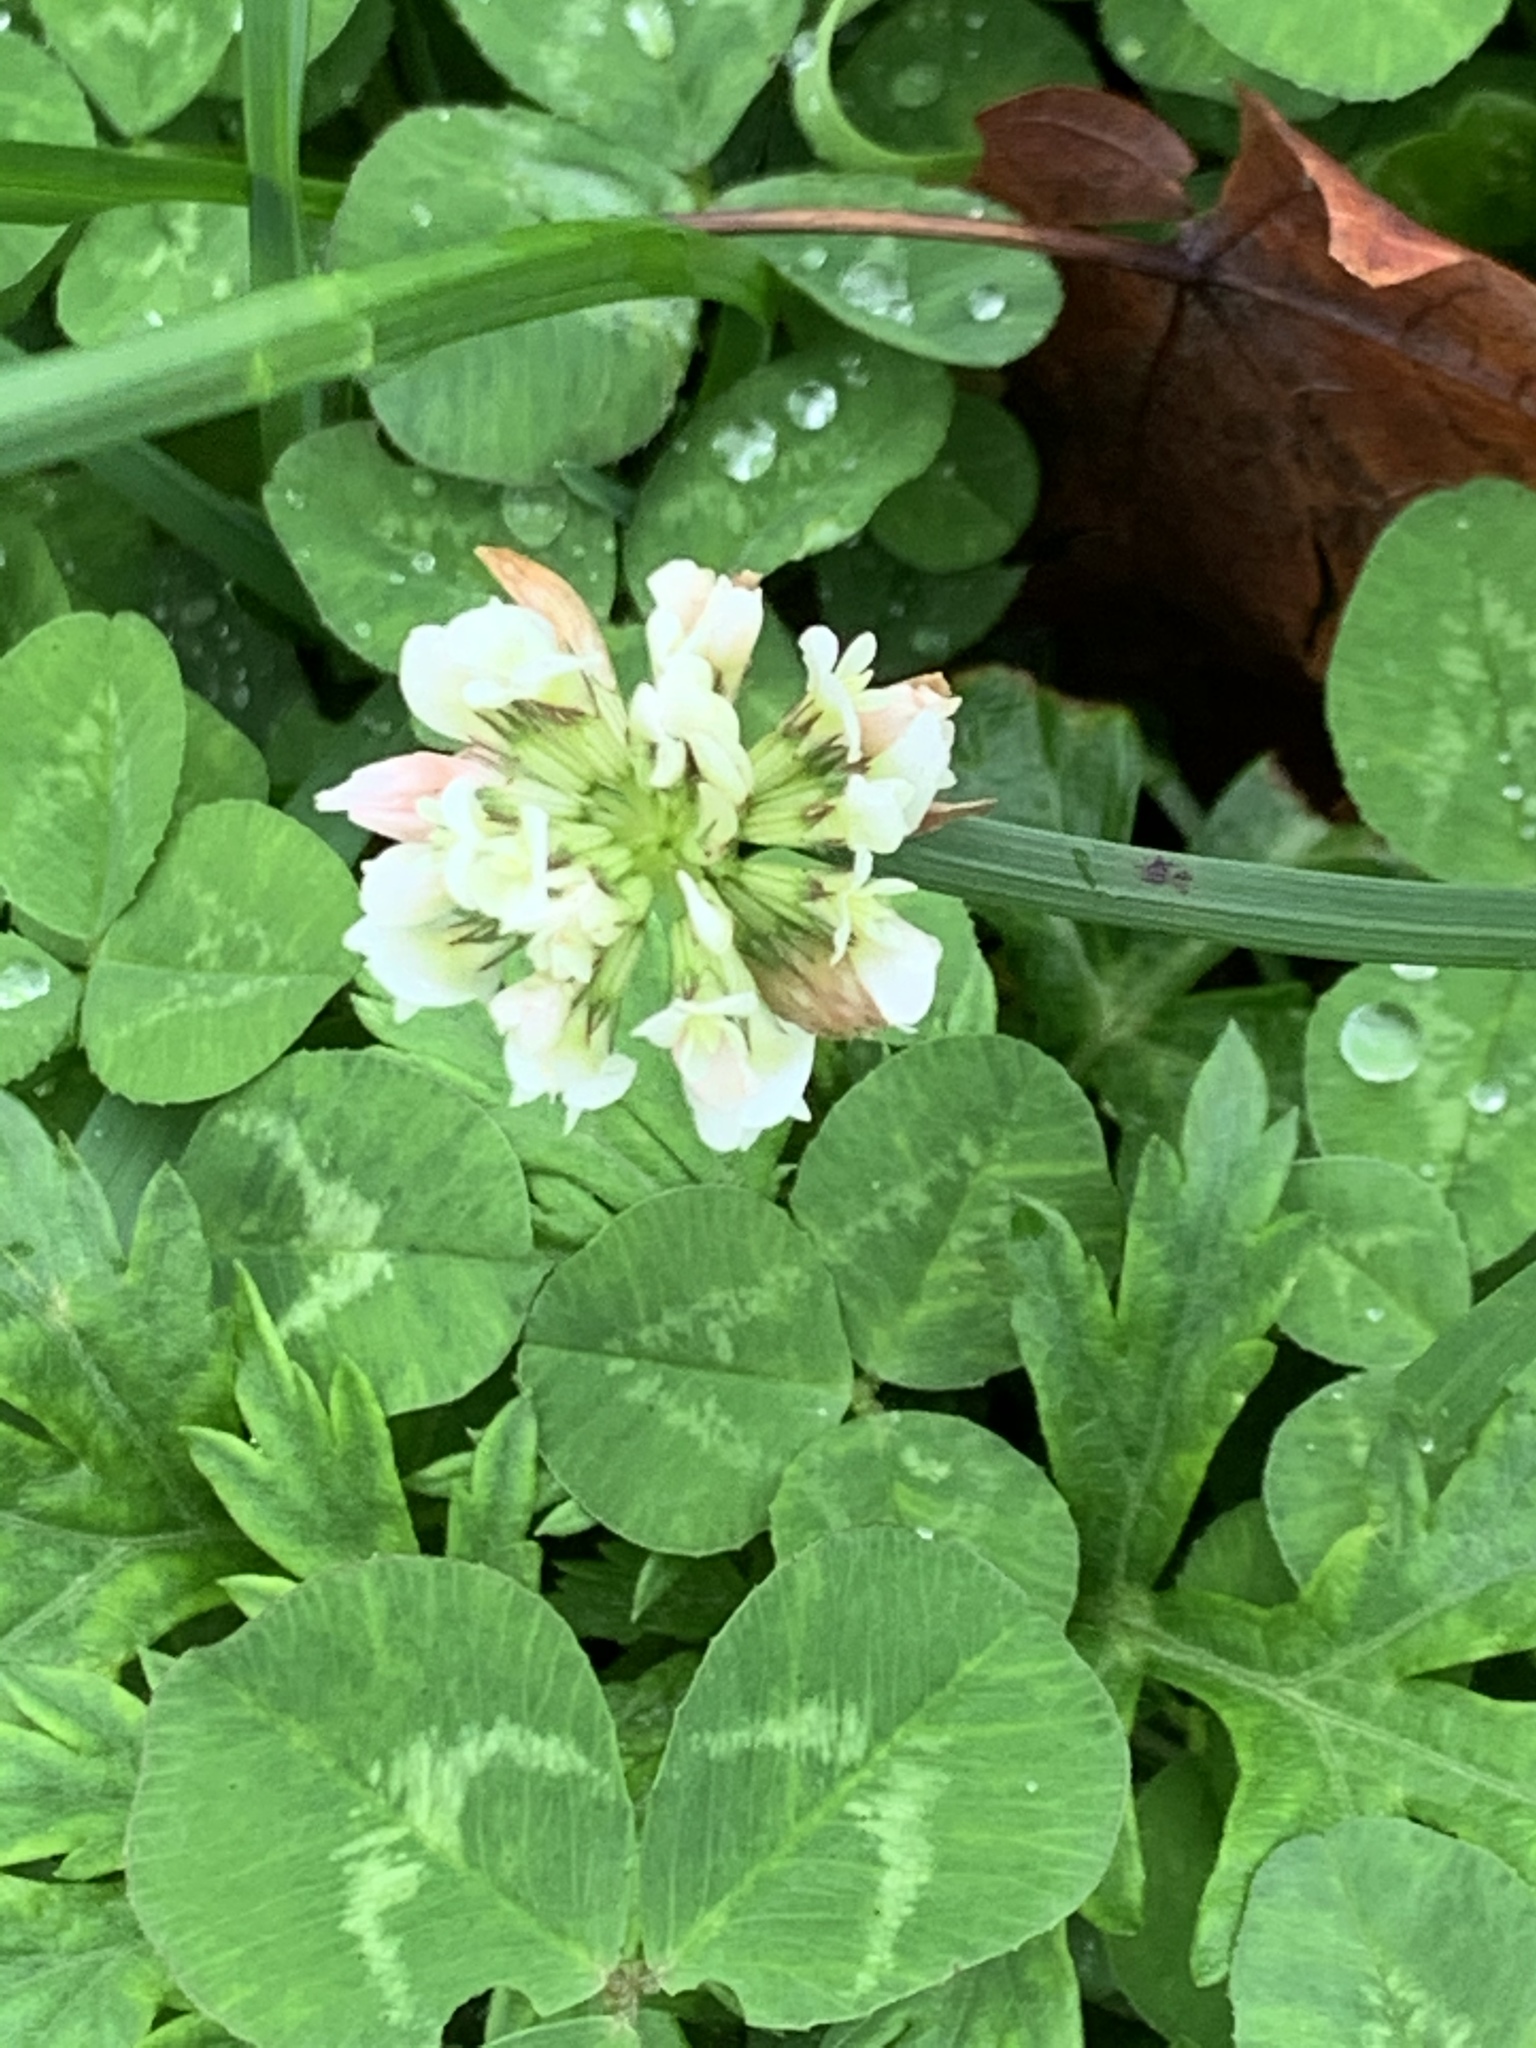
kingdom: Plantae
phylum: Tracheophyta
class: Magnoliopsida
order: Fabales
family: Fabaceae
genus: Trifolium
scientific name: Trifolium repens
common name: White clover
